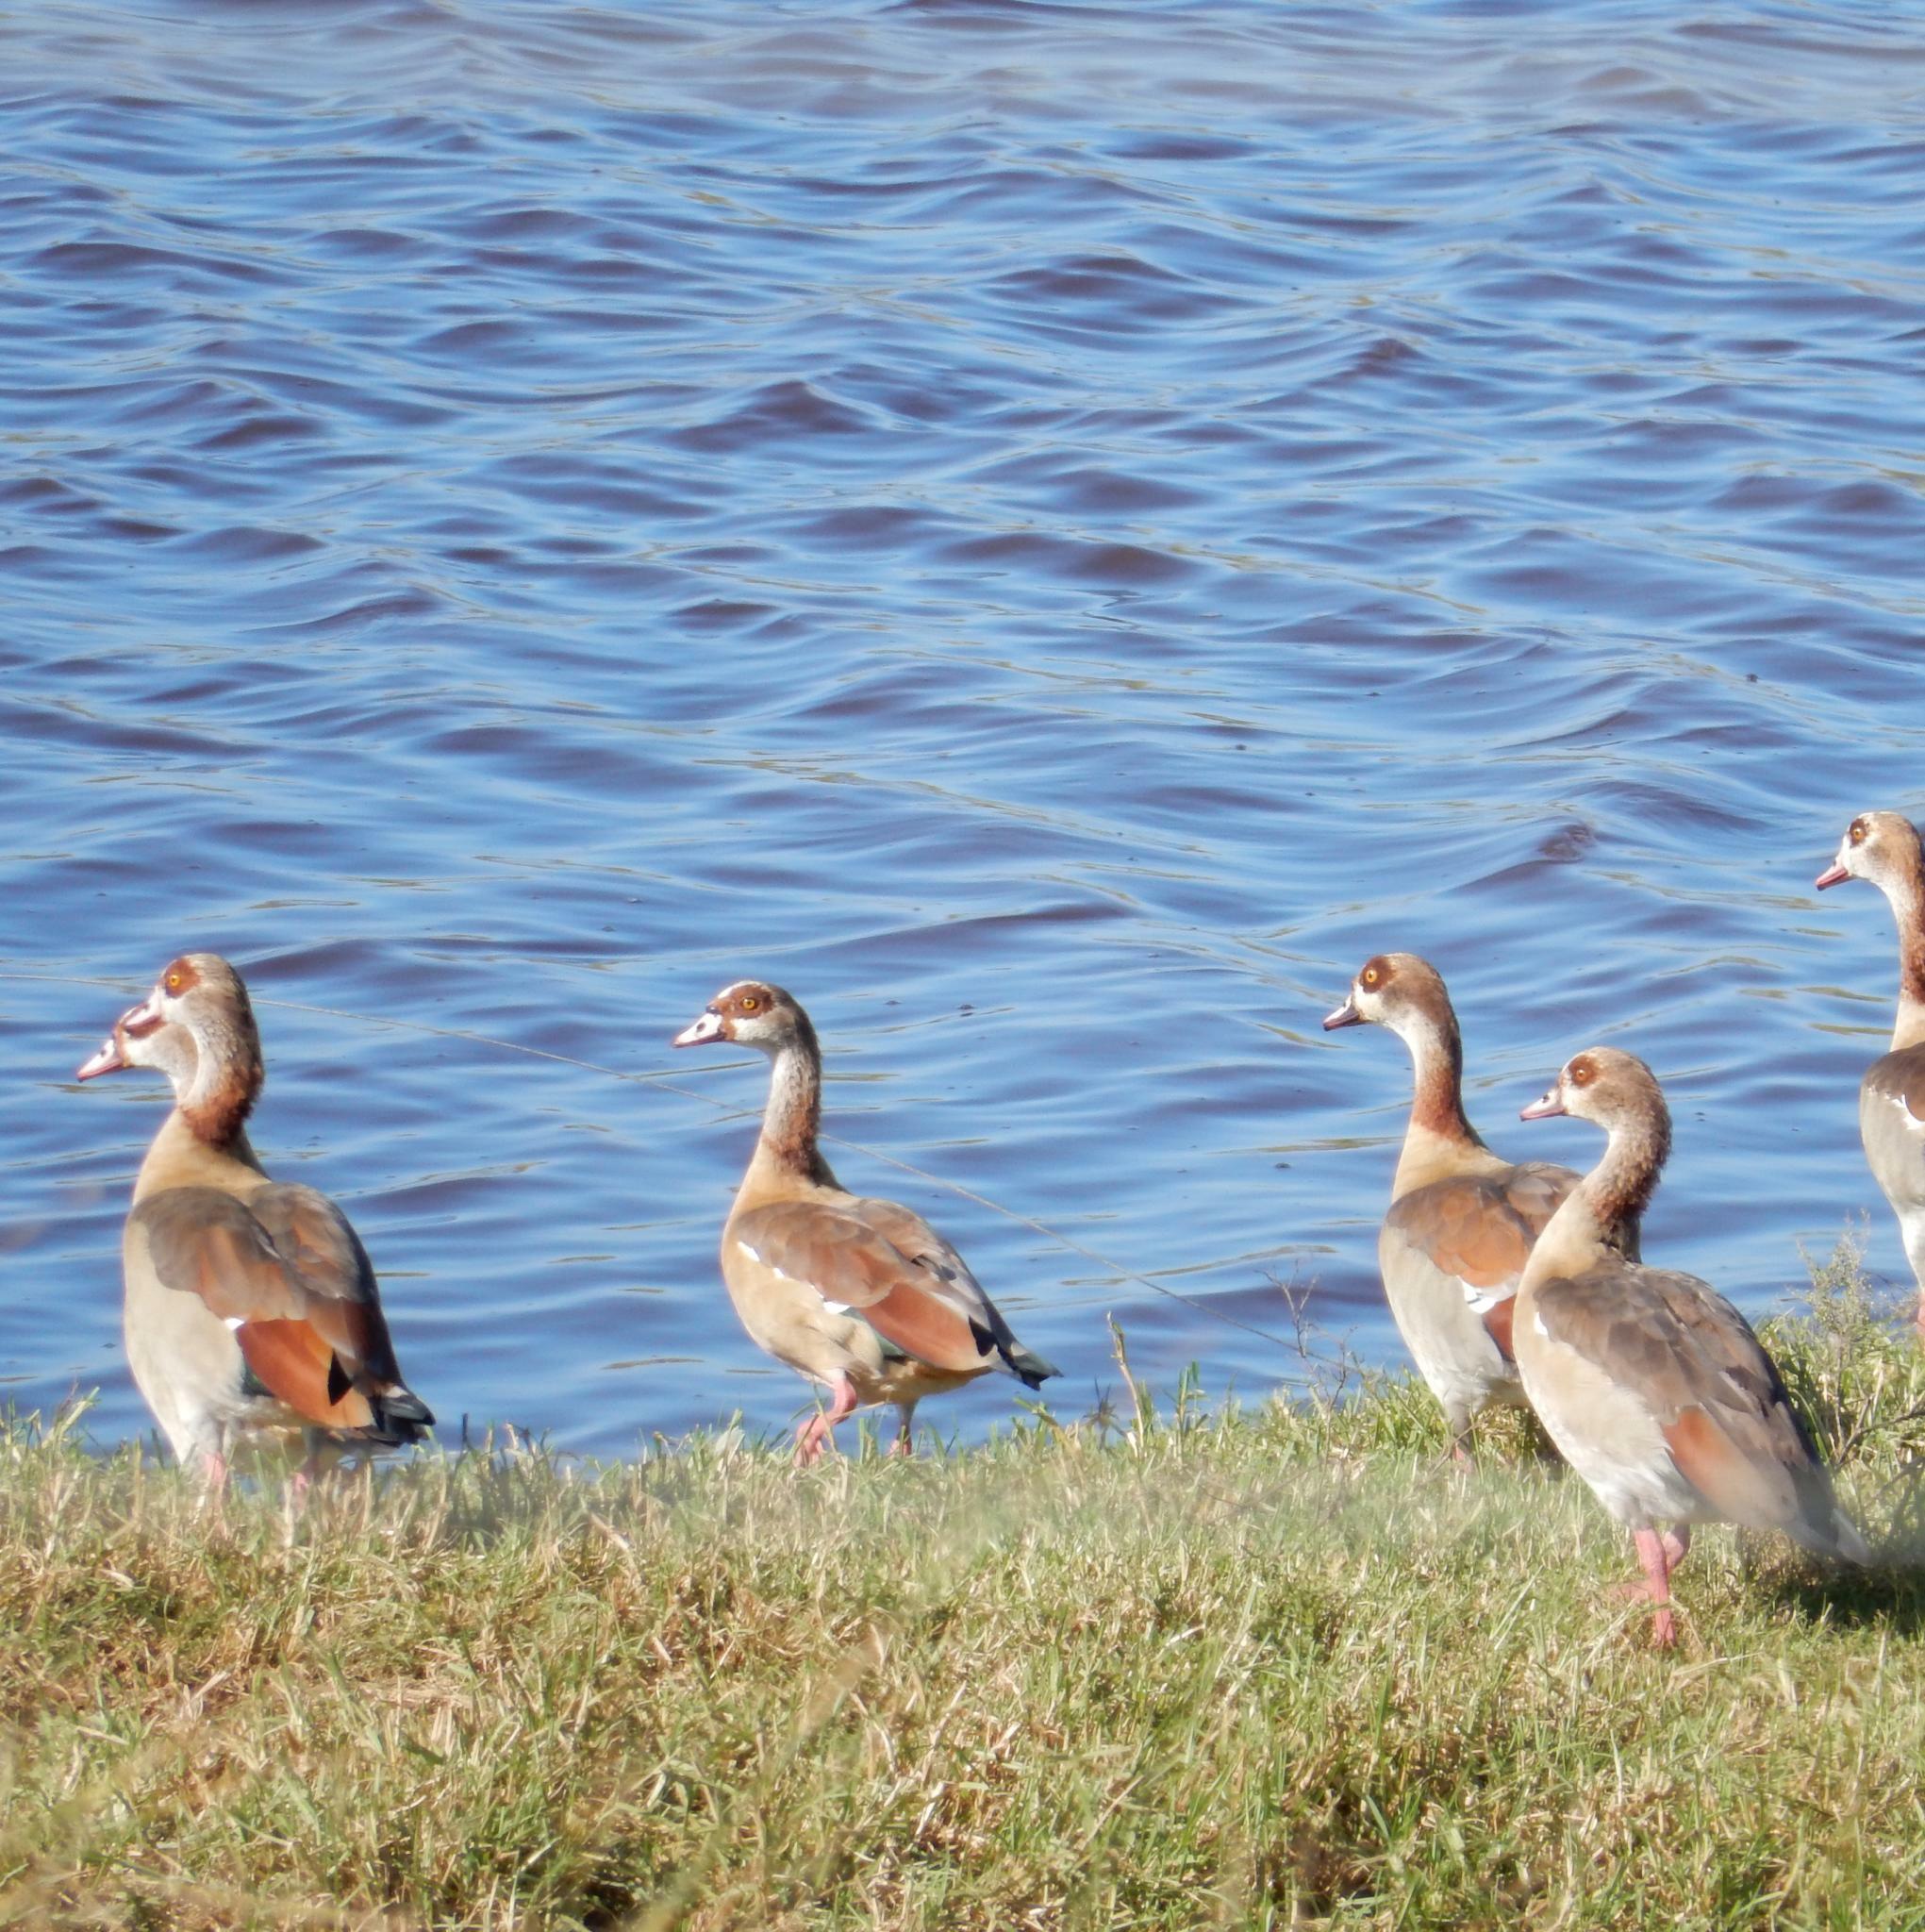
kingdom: Animalia
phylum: Chordata
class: Aves
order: Anseriformes
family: Anatidae
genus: Alopochen
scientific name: Alopochen aegyptiaca
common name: Egyptian goose
